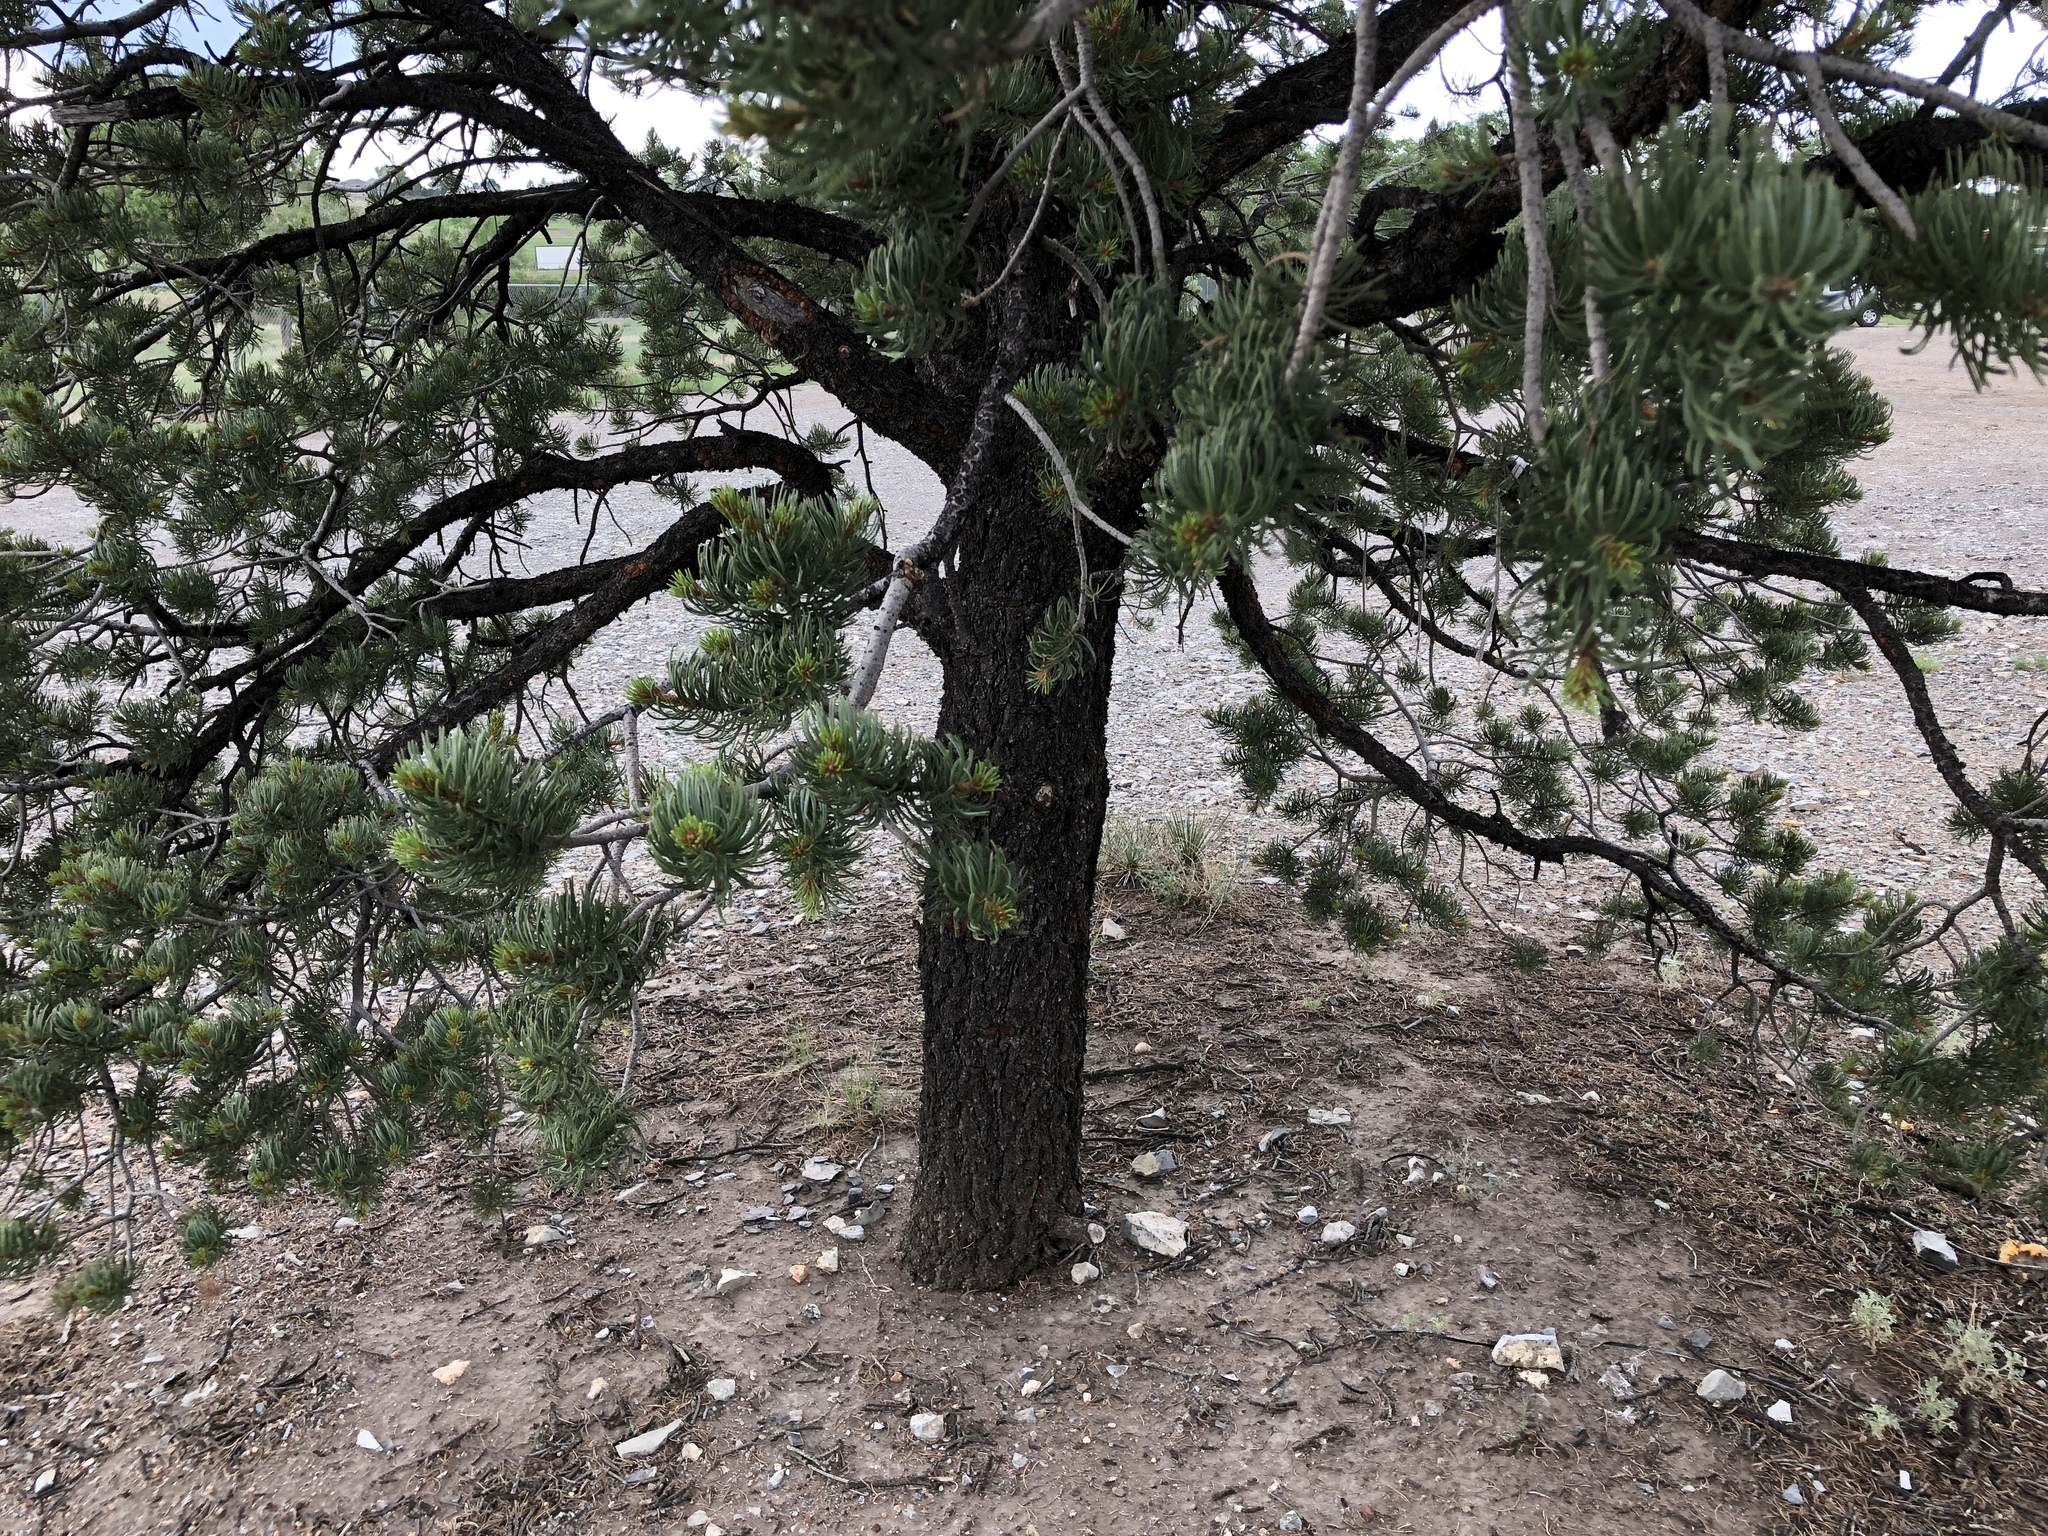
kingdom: Plantae
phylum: Tracheophyta
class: Pinopsida
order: Pinales
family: Pinaceae
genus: Pinus
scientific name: Pinus edulis
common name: Colorado pinyon
